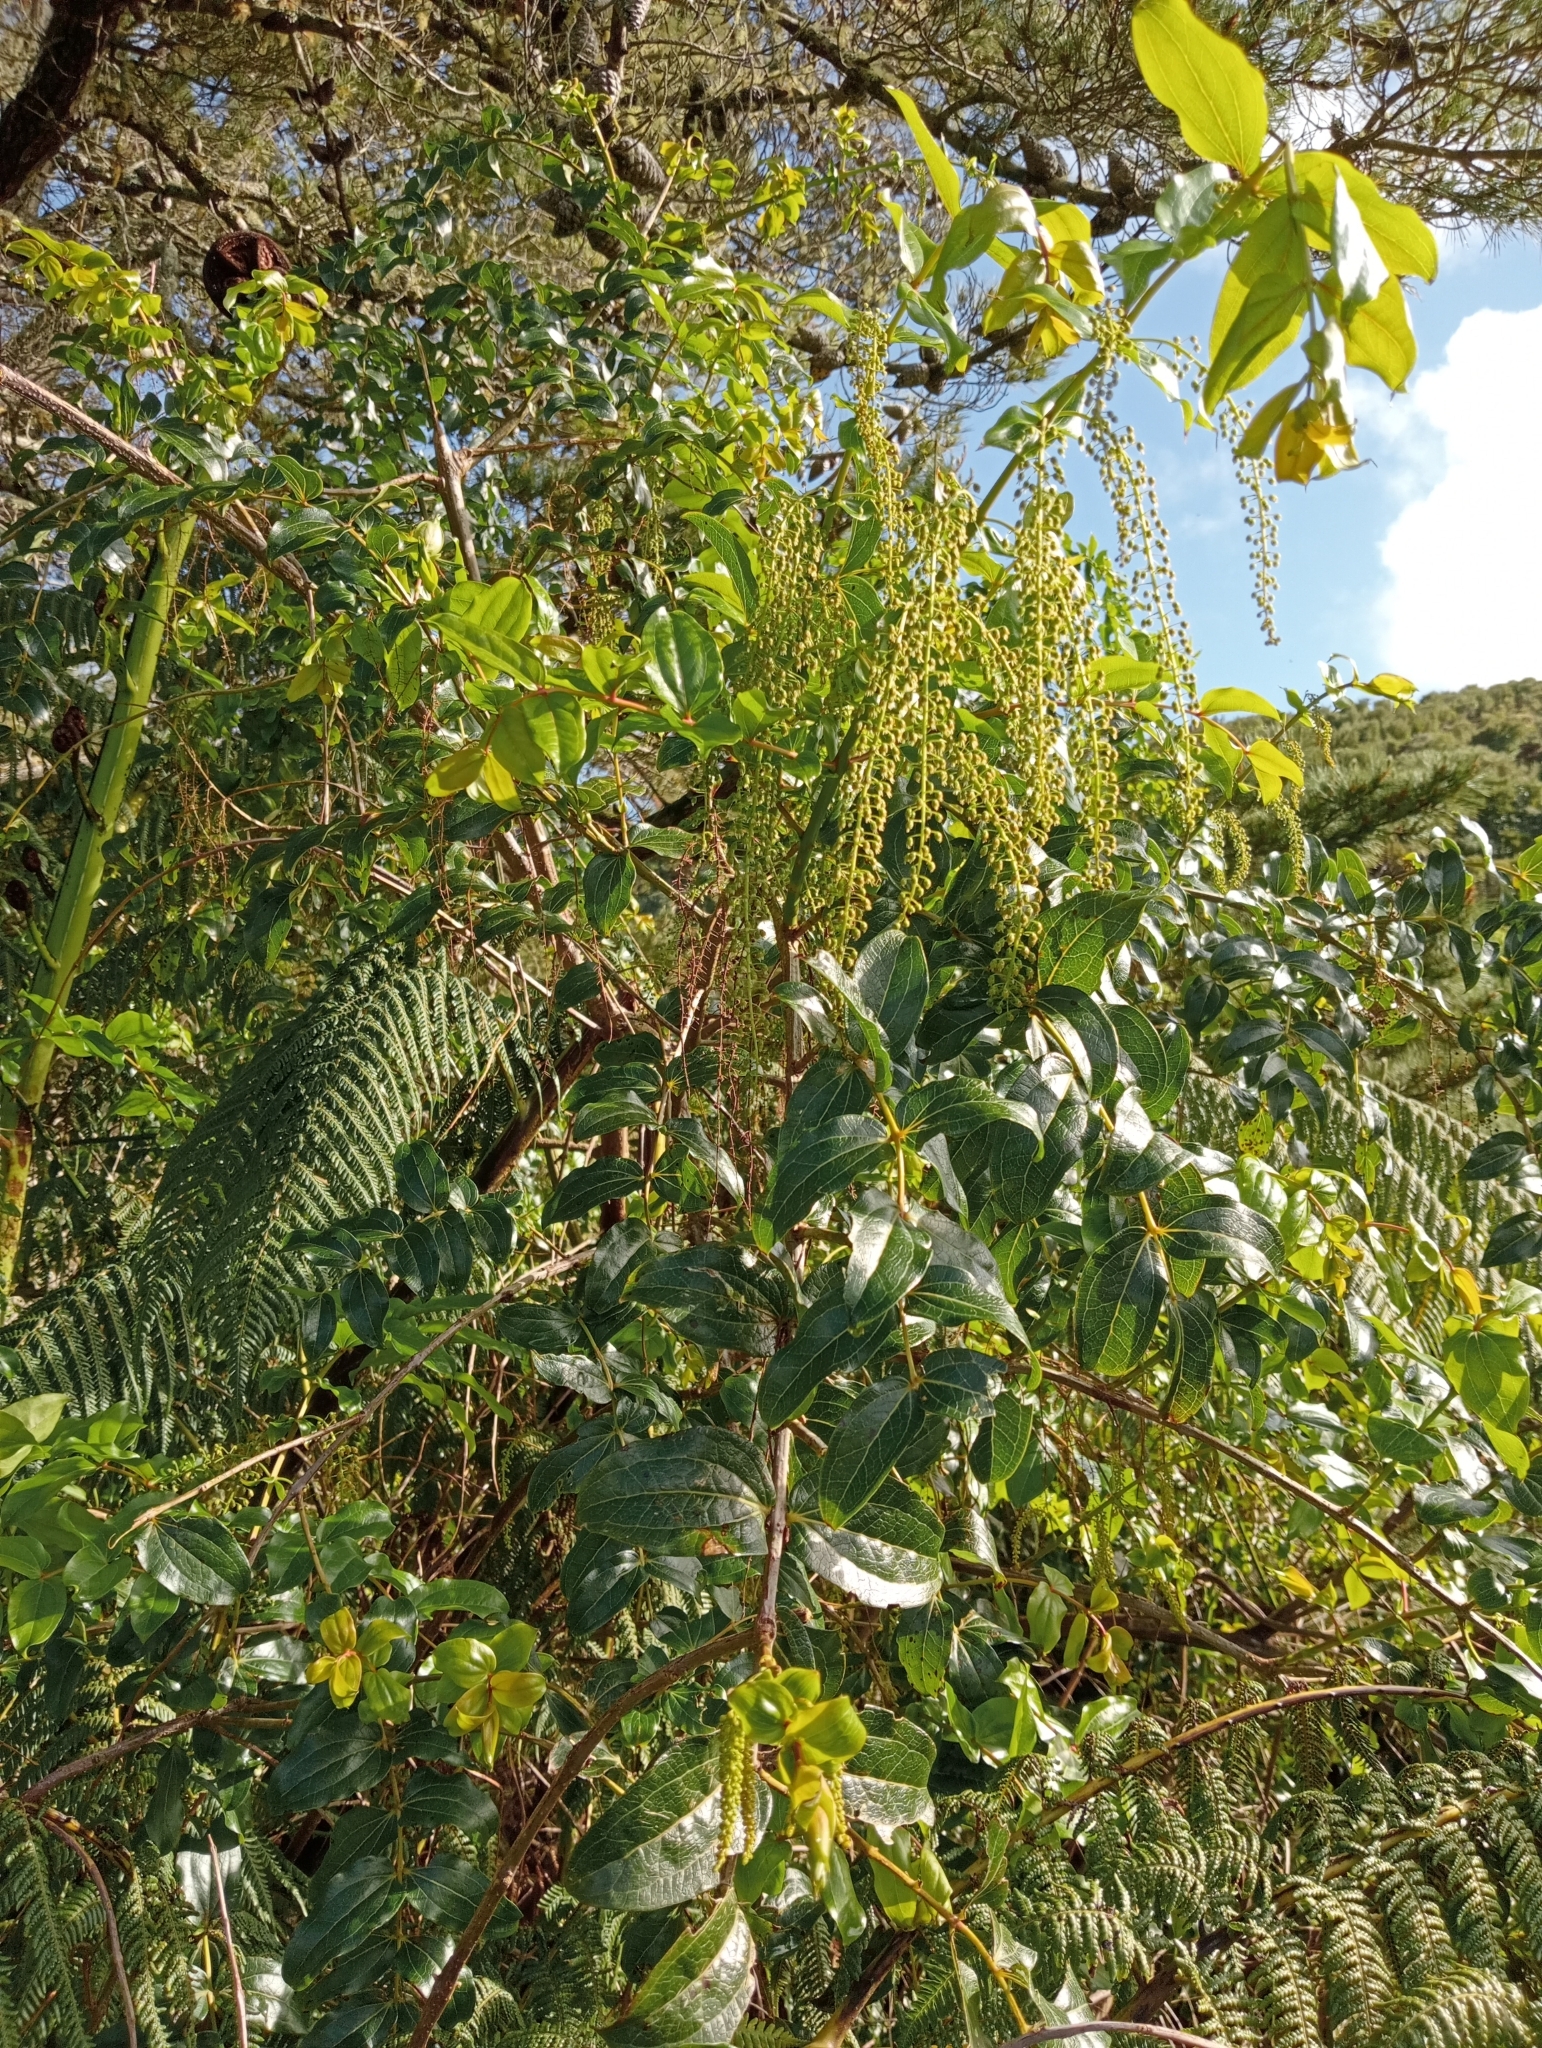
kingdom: Plantae
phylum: Tracheophyta
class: Magnoliopsida
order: Cucurbitales
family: Coriariaceae
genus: Coriaria
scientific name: Coriaria arborea
